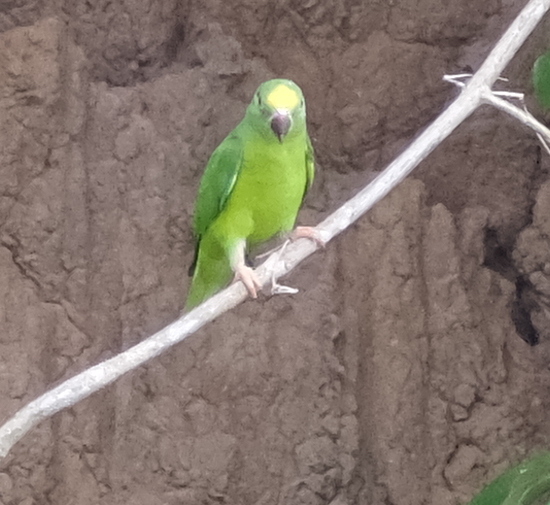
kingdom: Animalia
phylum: Chordata
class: Aves
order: Psittaciformes
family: Psittacidae
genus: Brotogeris
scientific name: Brotogeris sanctithomae
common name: Tui parakeet
